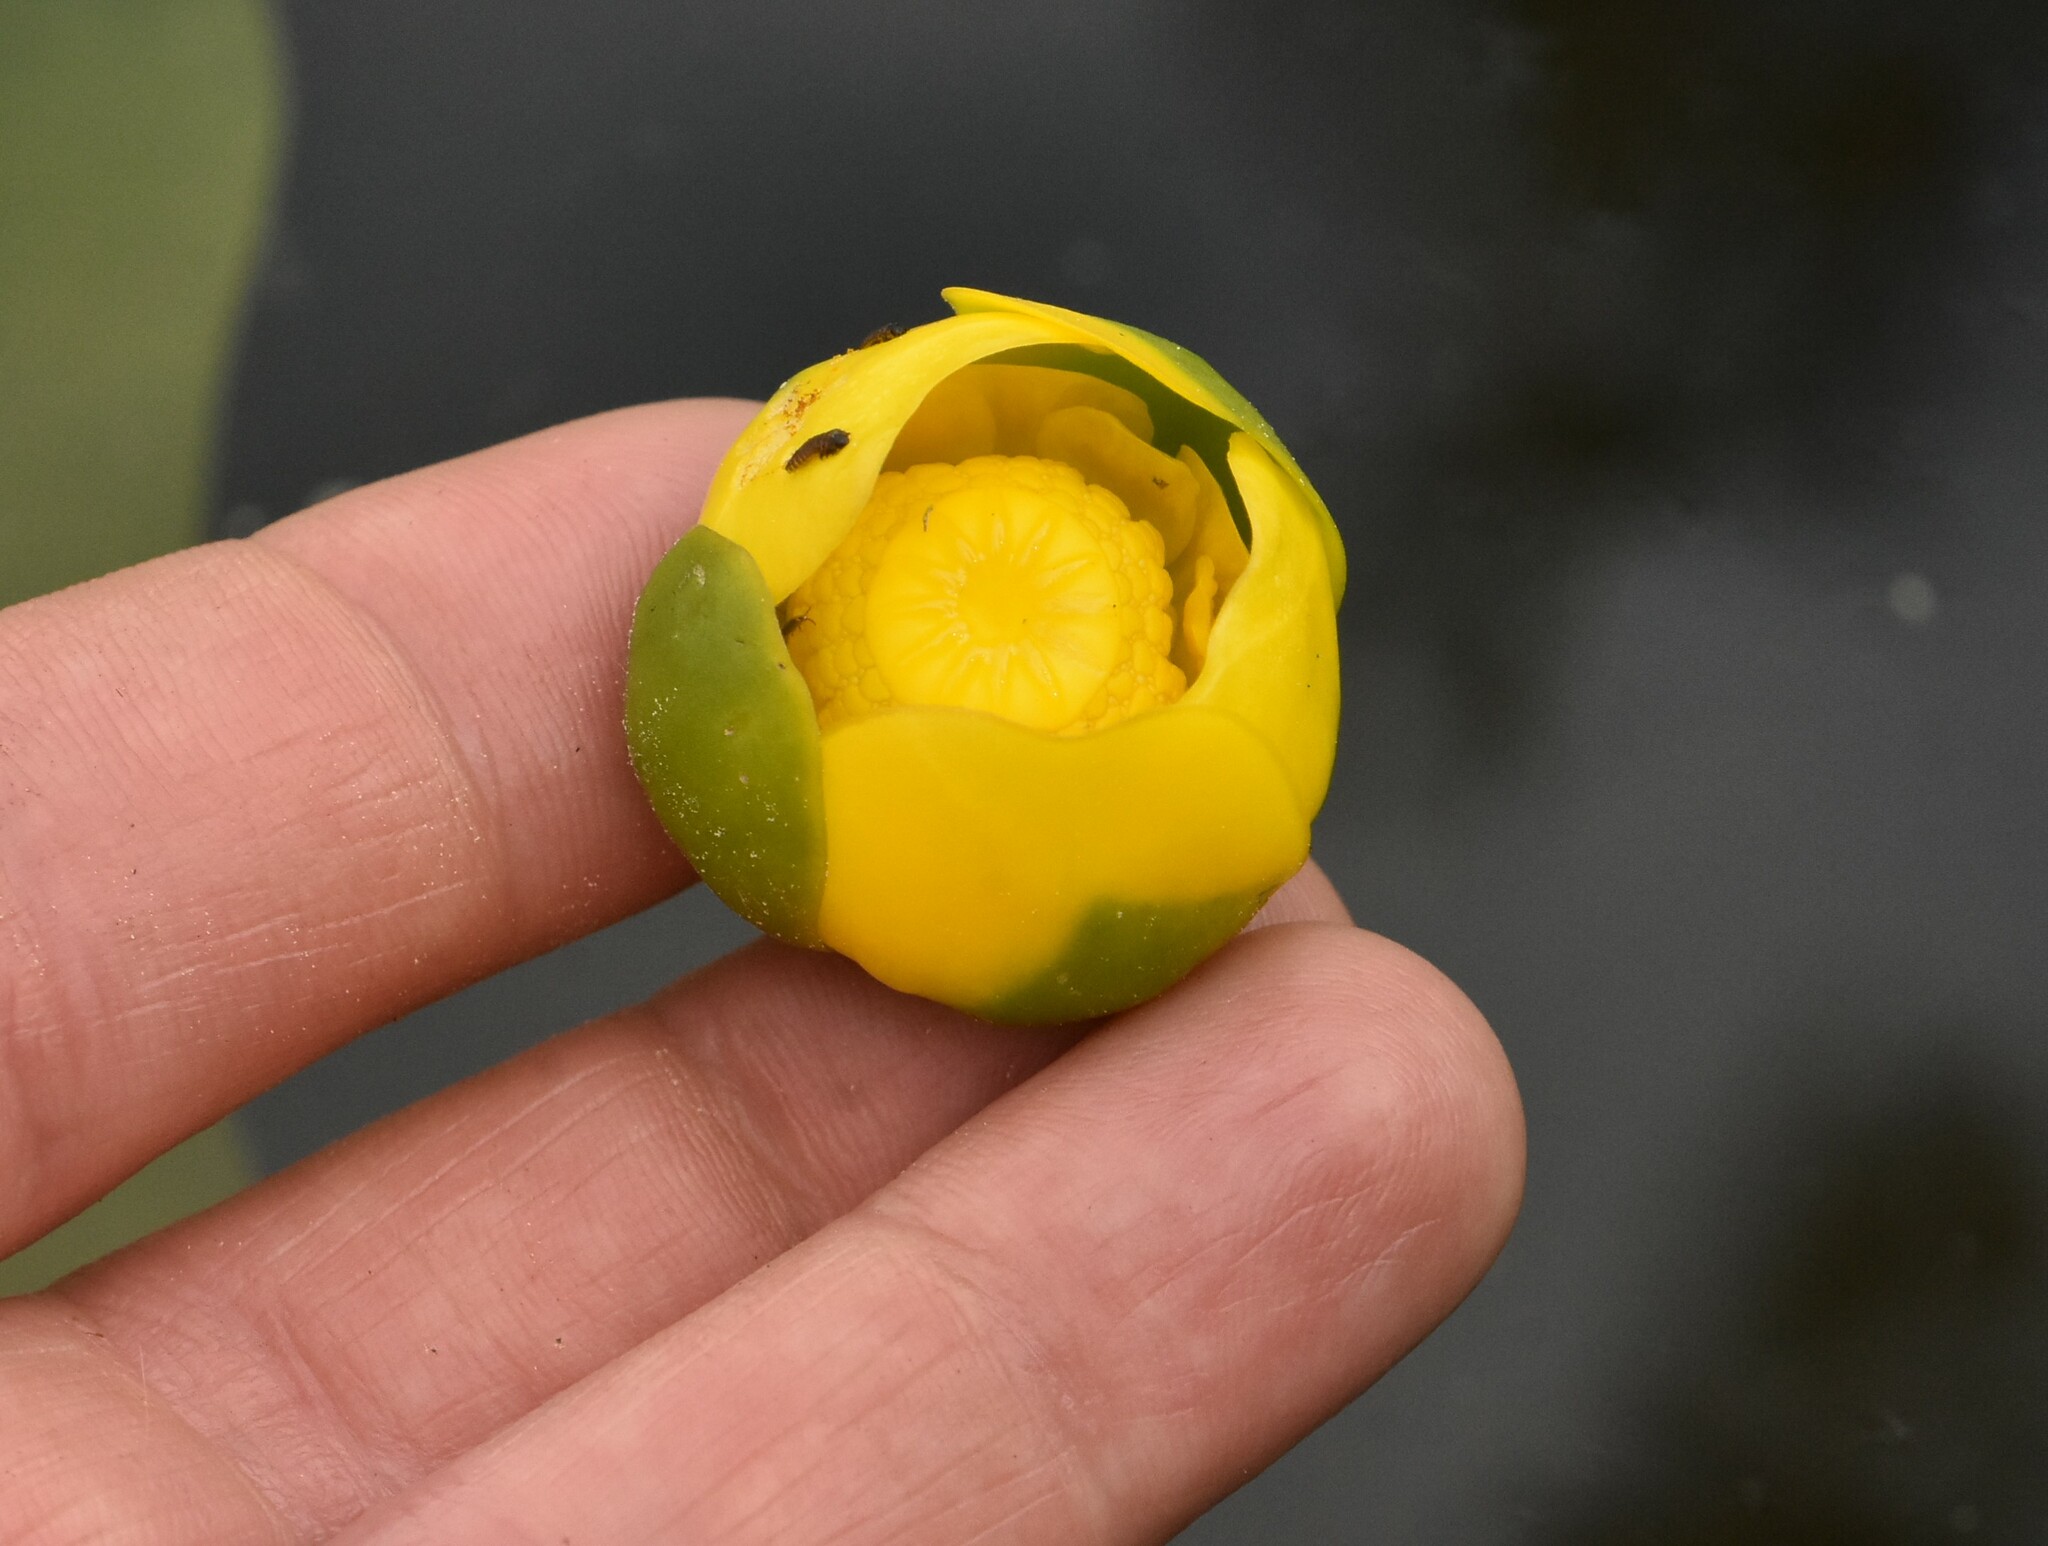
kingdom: Plantae
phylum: Tracheophyta
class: Magnoliopsida
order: Nymphaeales
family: Nymphaeaceae
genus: Nuphar
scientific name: Nuphar lutea
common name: Yellow water-lily
